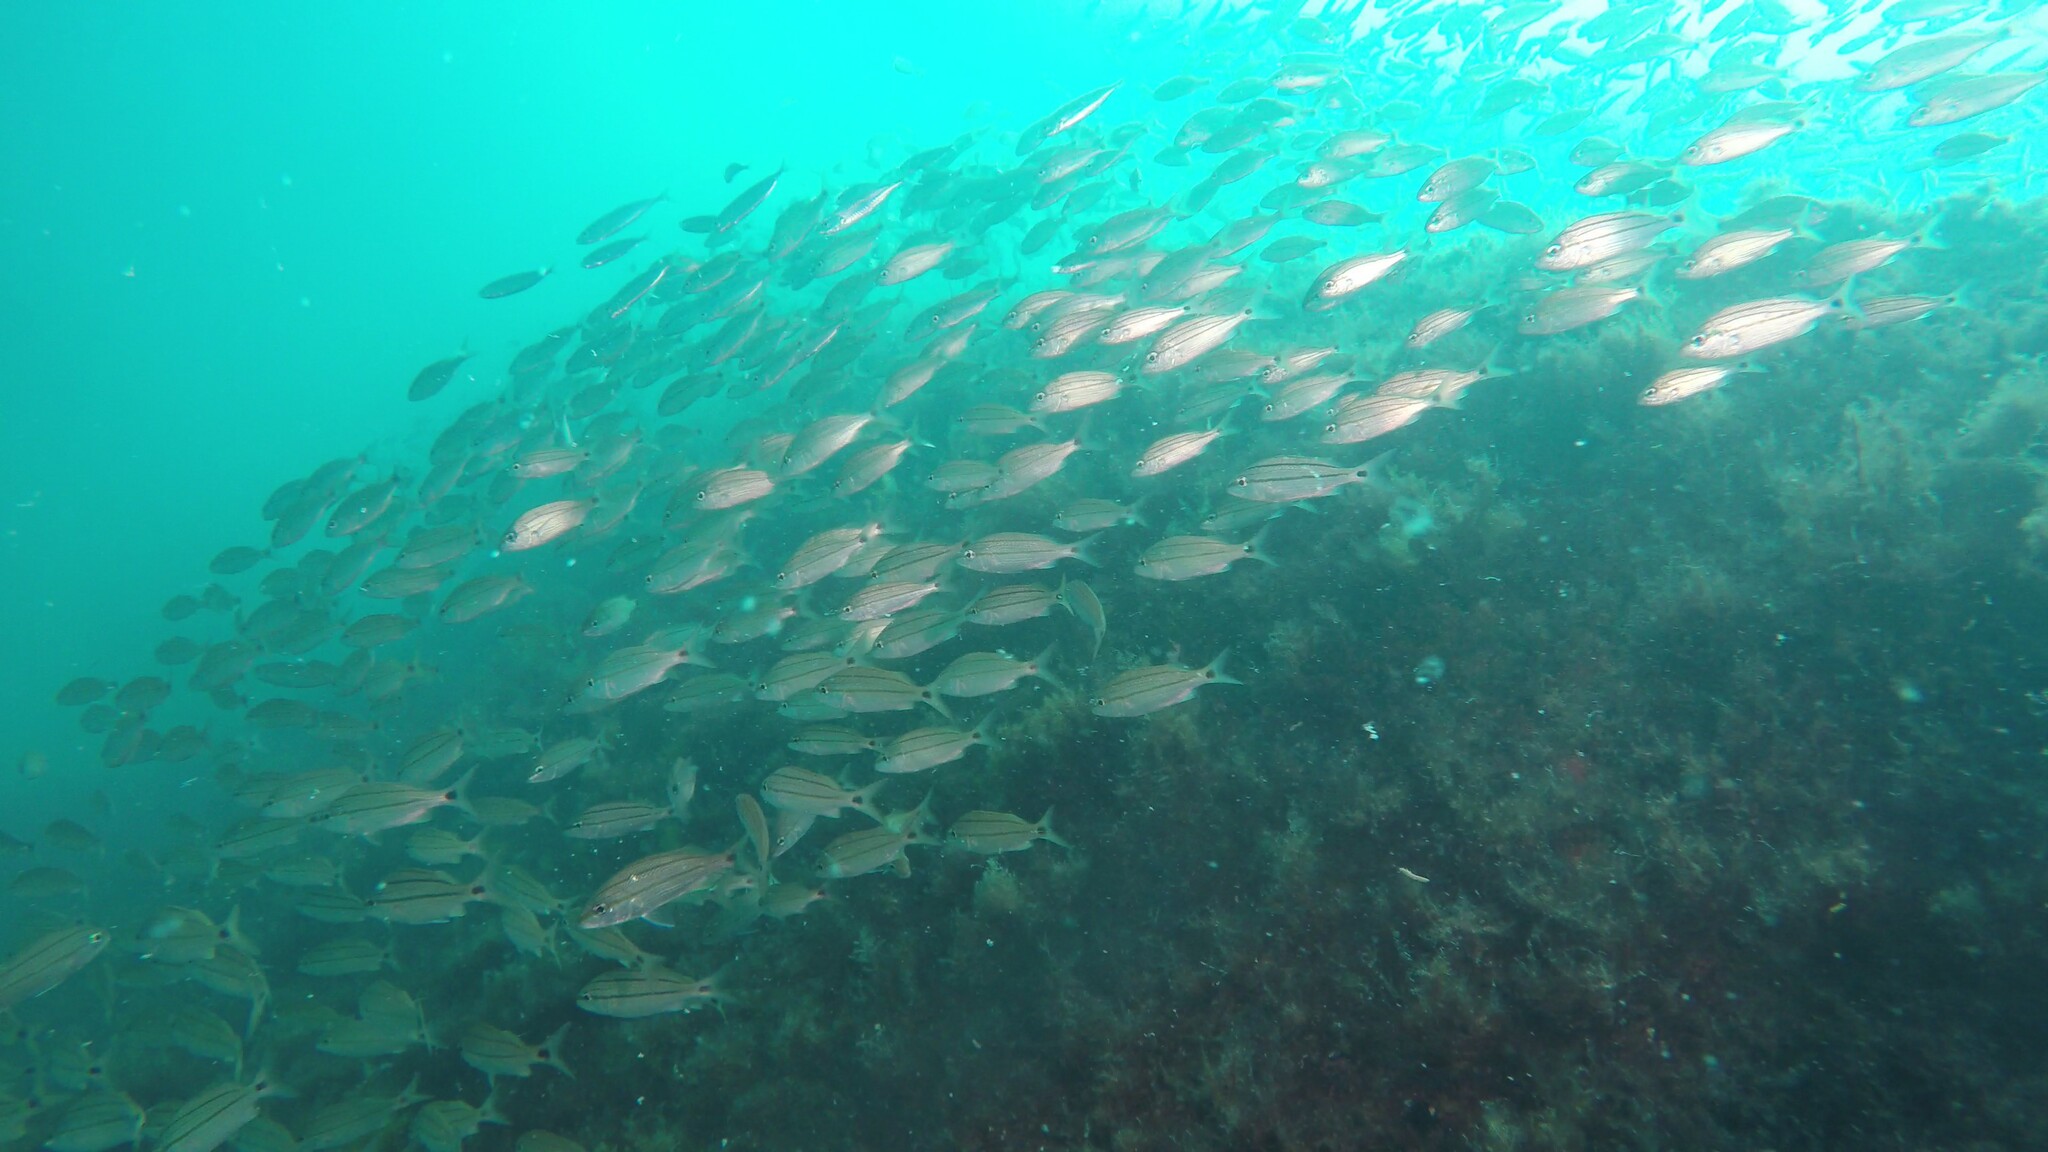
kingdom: Animalia
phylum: Chordata
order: Perciformes
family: Haemulidae
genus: Haemulon
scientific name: Haemulon aurolineatum
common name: Tomtate
